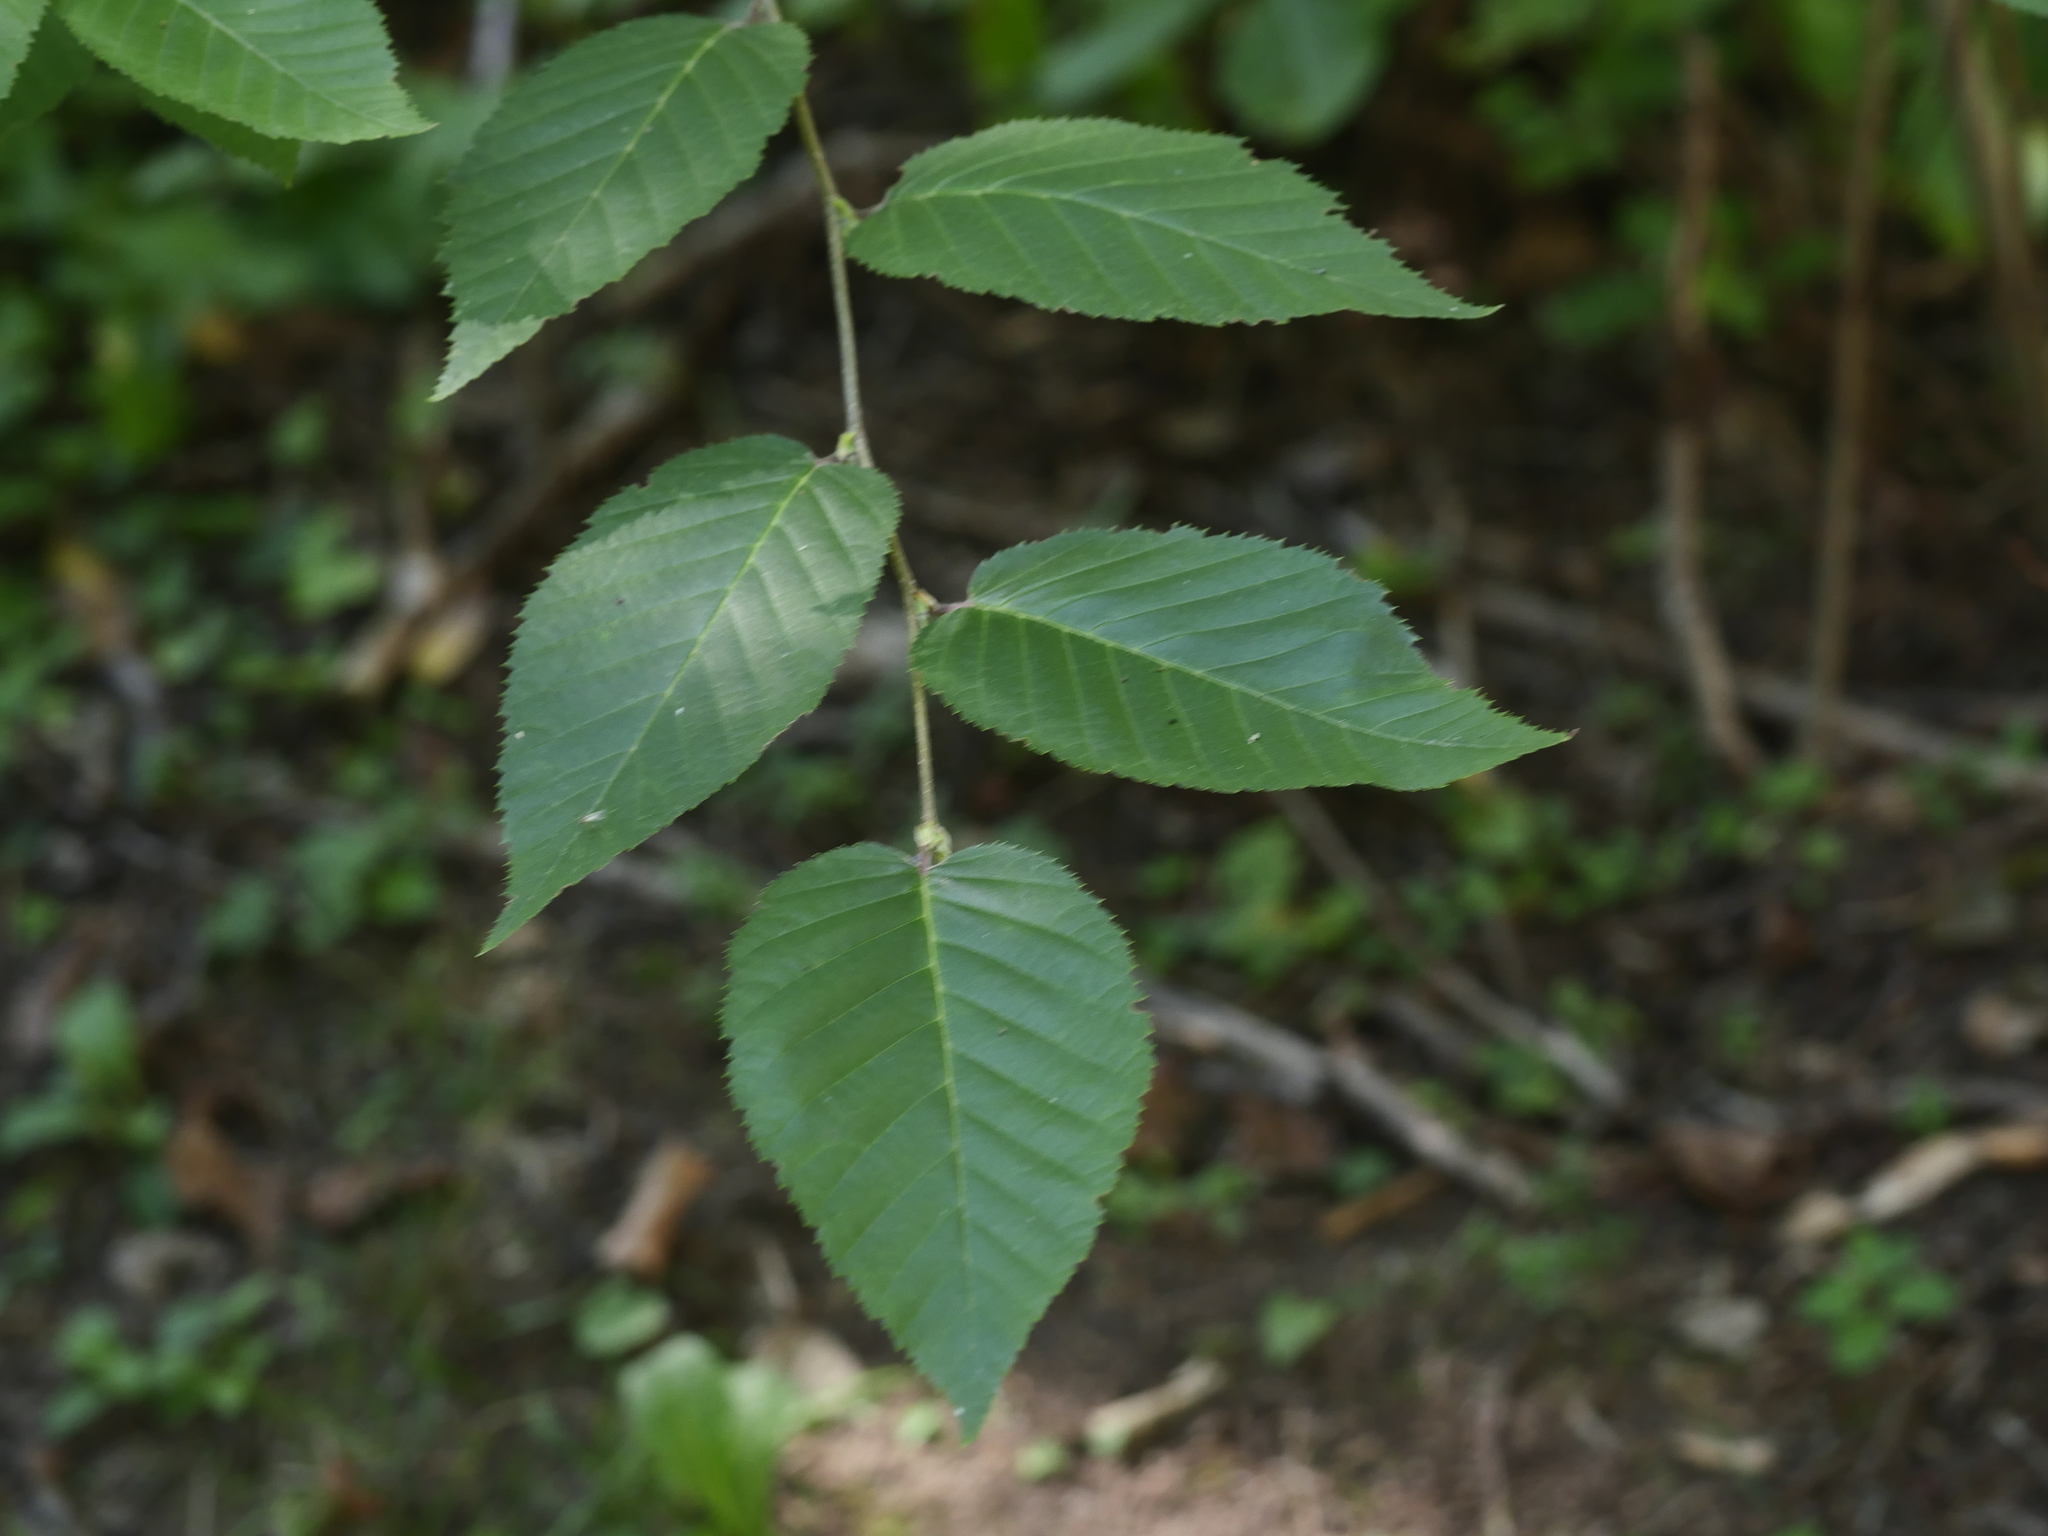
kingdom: Plantae
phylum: Tracheophyta
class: Magnoliopsida
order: Fagales
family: Betulaceae
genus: Betula
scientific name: Betula alleghaniensis
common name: Yellow birch
